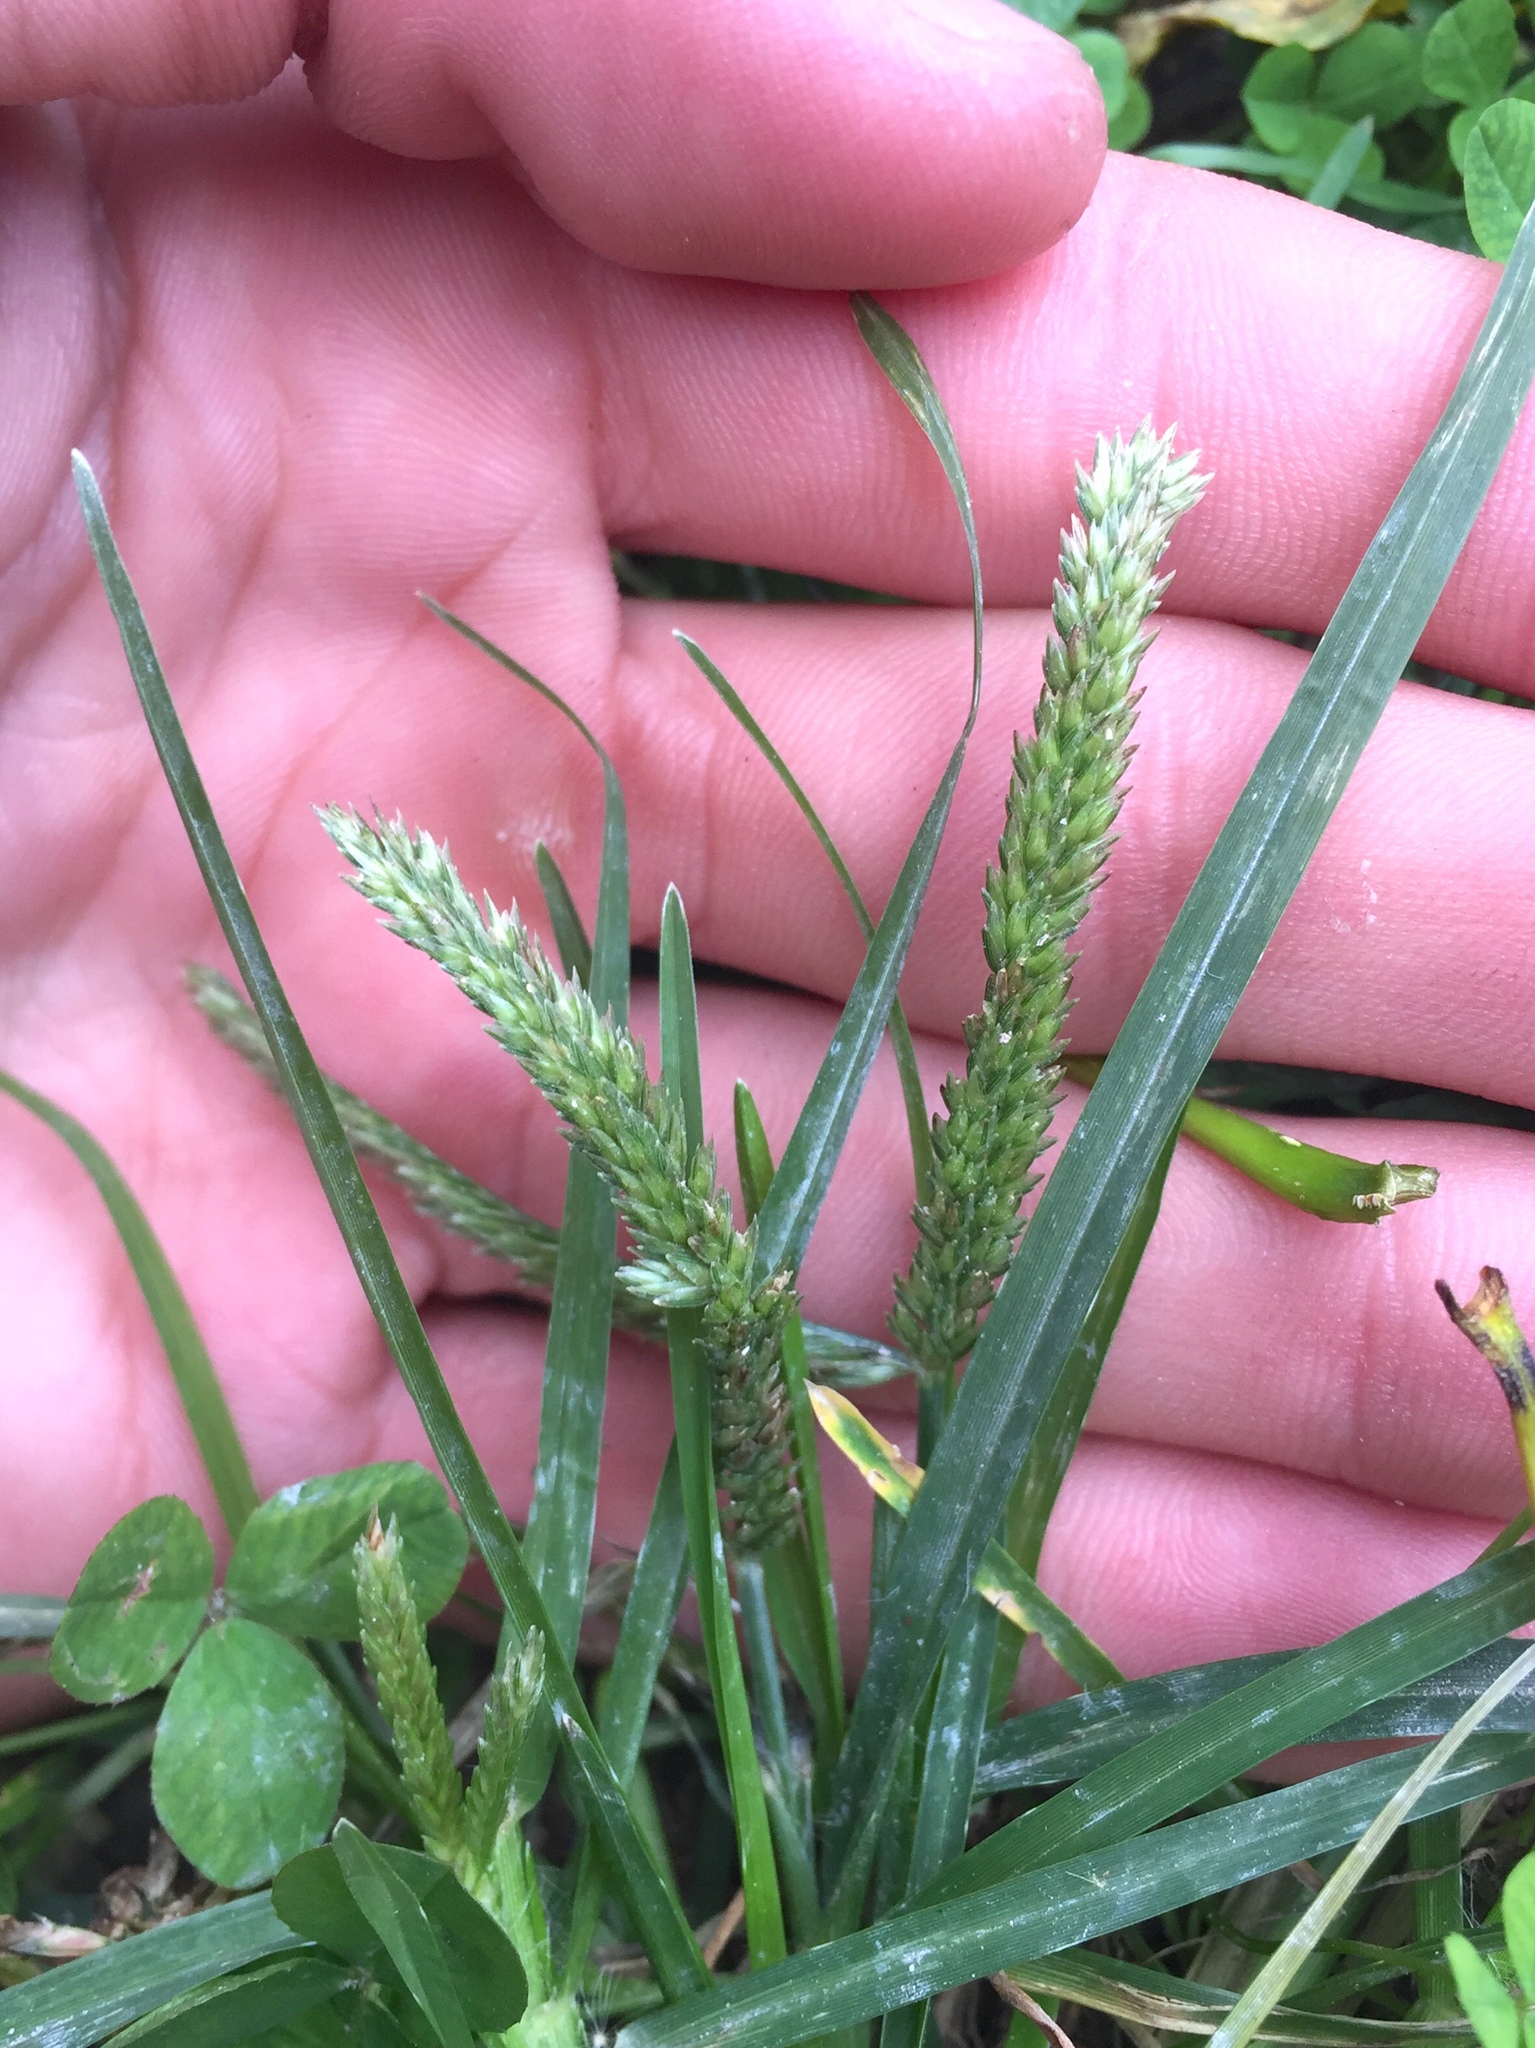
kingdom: Plantae
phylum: Tracheophyta
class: Liliopsida
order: Poales
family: Poaceae
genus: Eleusine
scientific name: Eleusine indica
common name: Yard-grass
